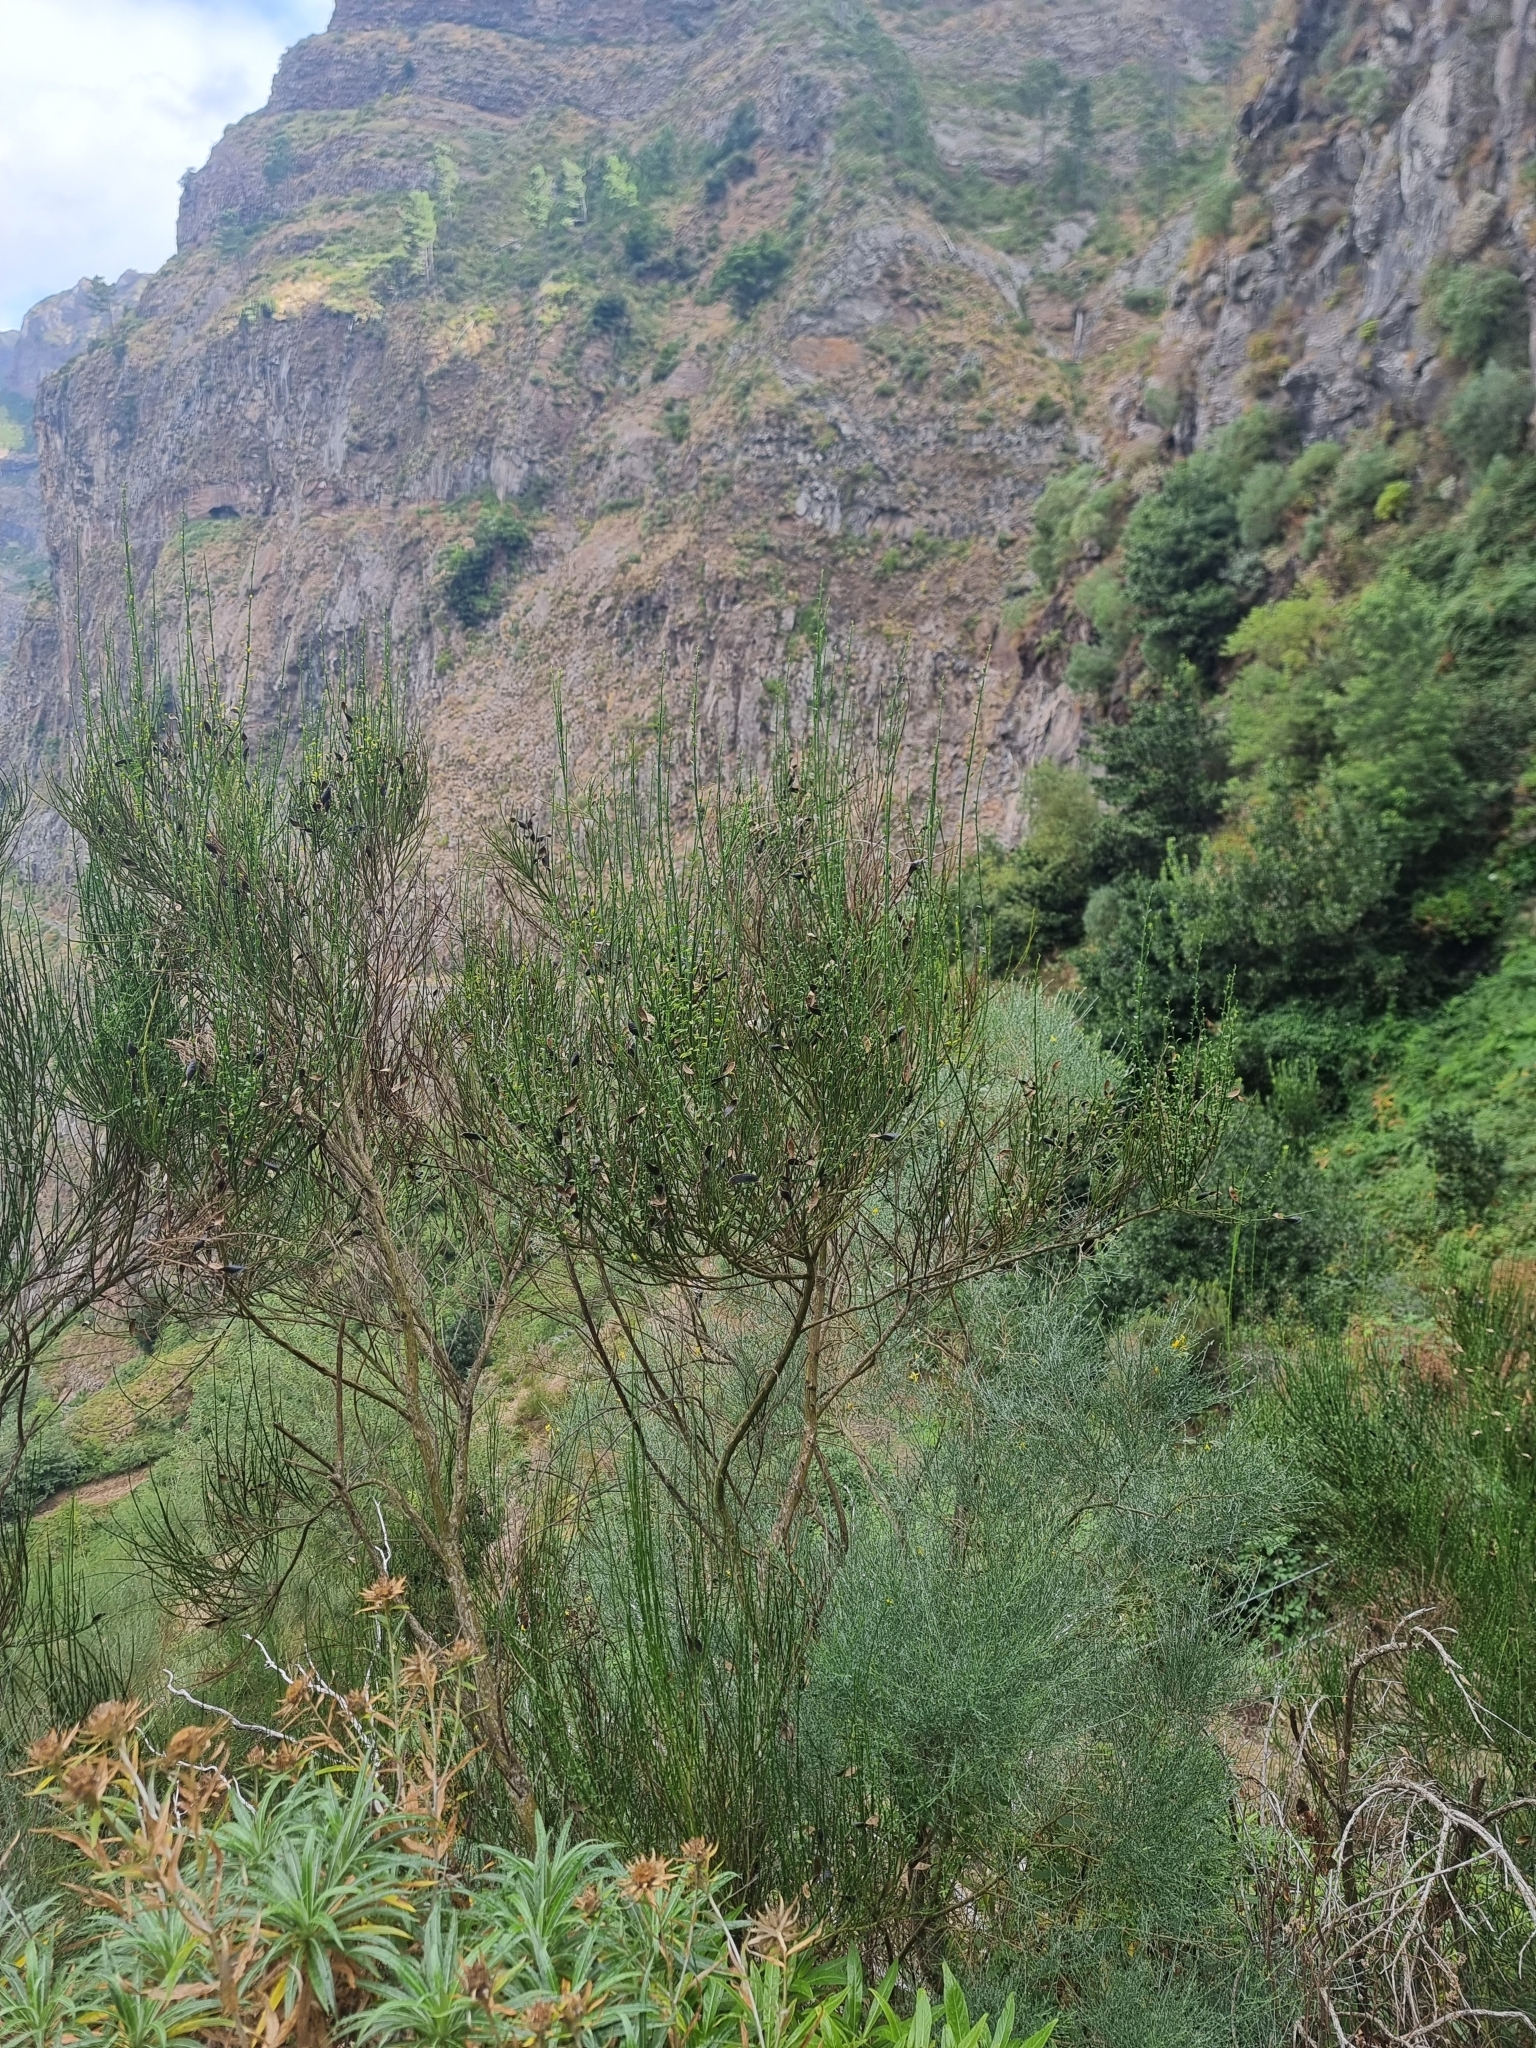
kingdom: Plantae
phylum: Tracheophyta
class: Magnoliopsida
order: Fabales
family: Fabaceae
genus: Cytisus
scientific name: Cytisus scoparius
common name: Scotch broom
